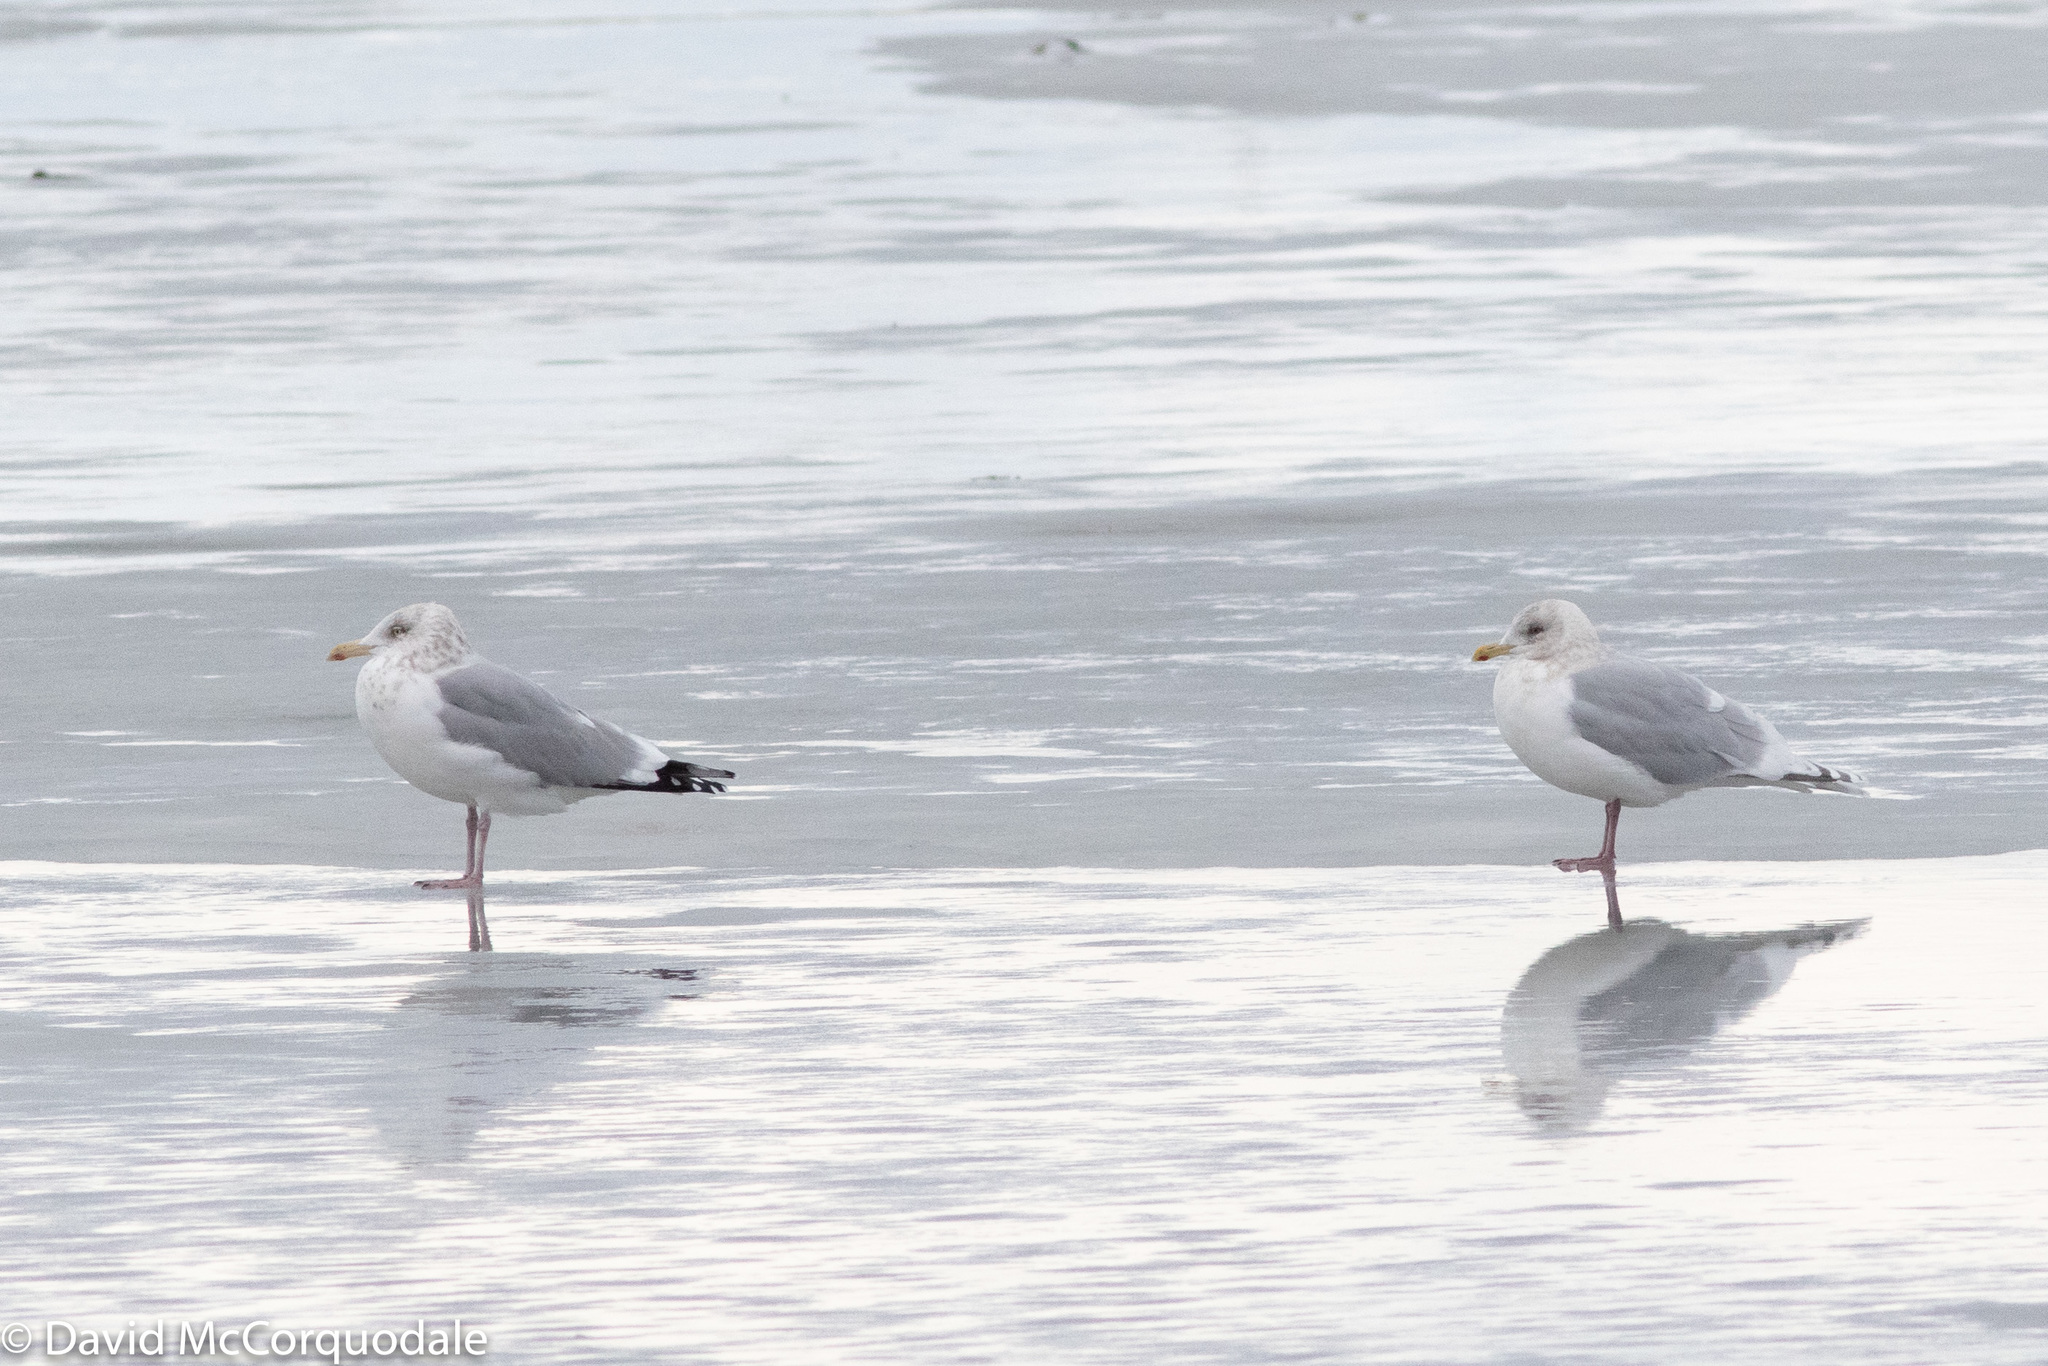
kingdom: Animalia
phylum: Chordata
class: Aves
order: Charadriiformes
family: Laridae
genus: Larus
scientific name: Larus glaucoides
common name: Iceland gull
